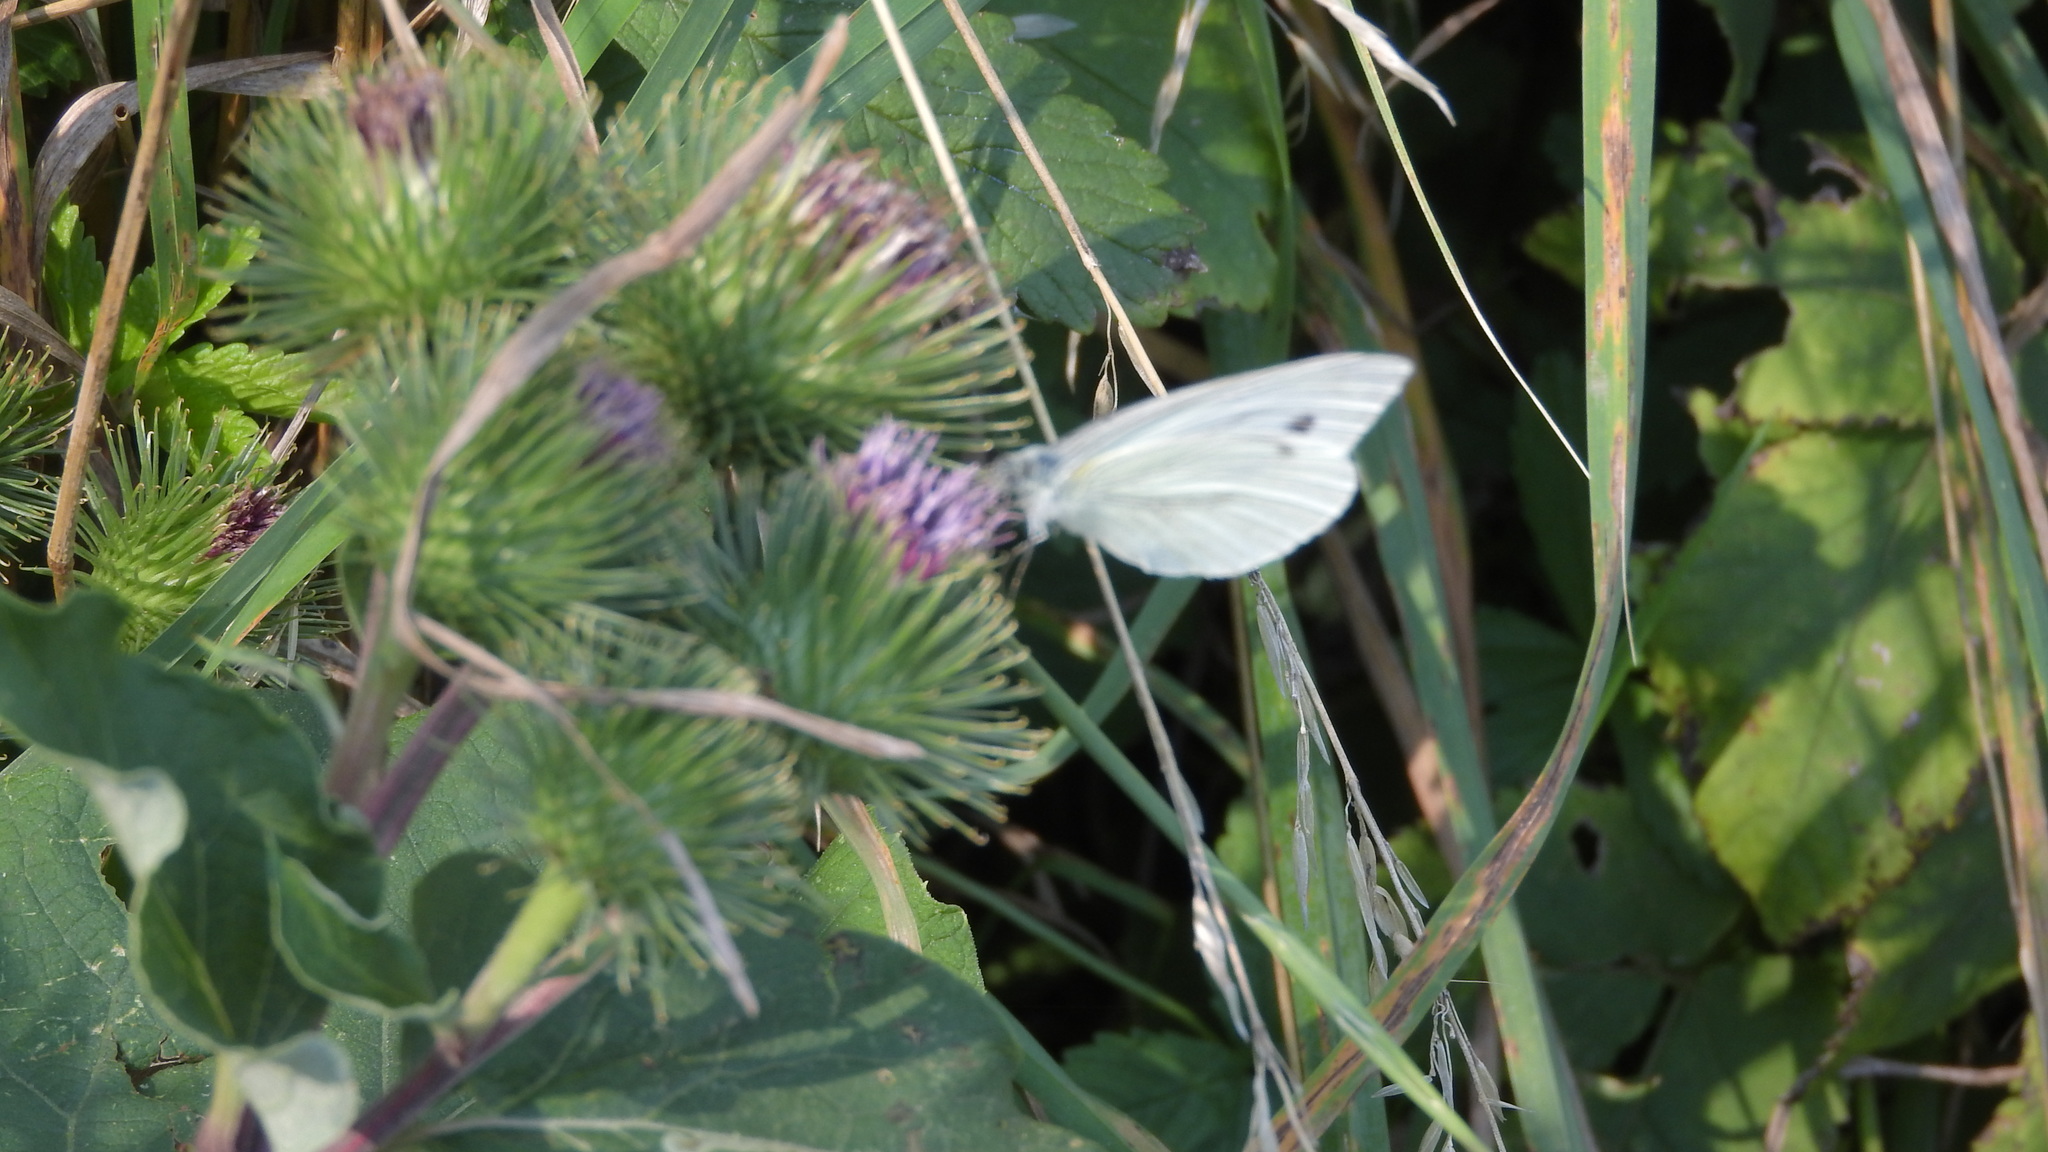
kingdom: Animalia
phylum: Arthropoda
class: Insecta
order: Lepidoptera
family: Pieridae
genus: Pieris
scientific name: Pieris napi
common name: Green-veined white
